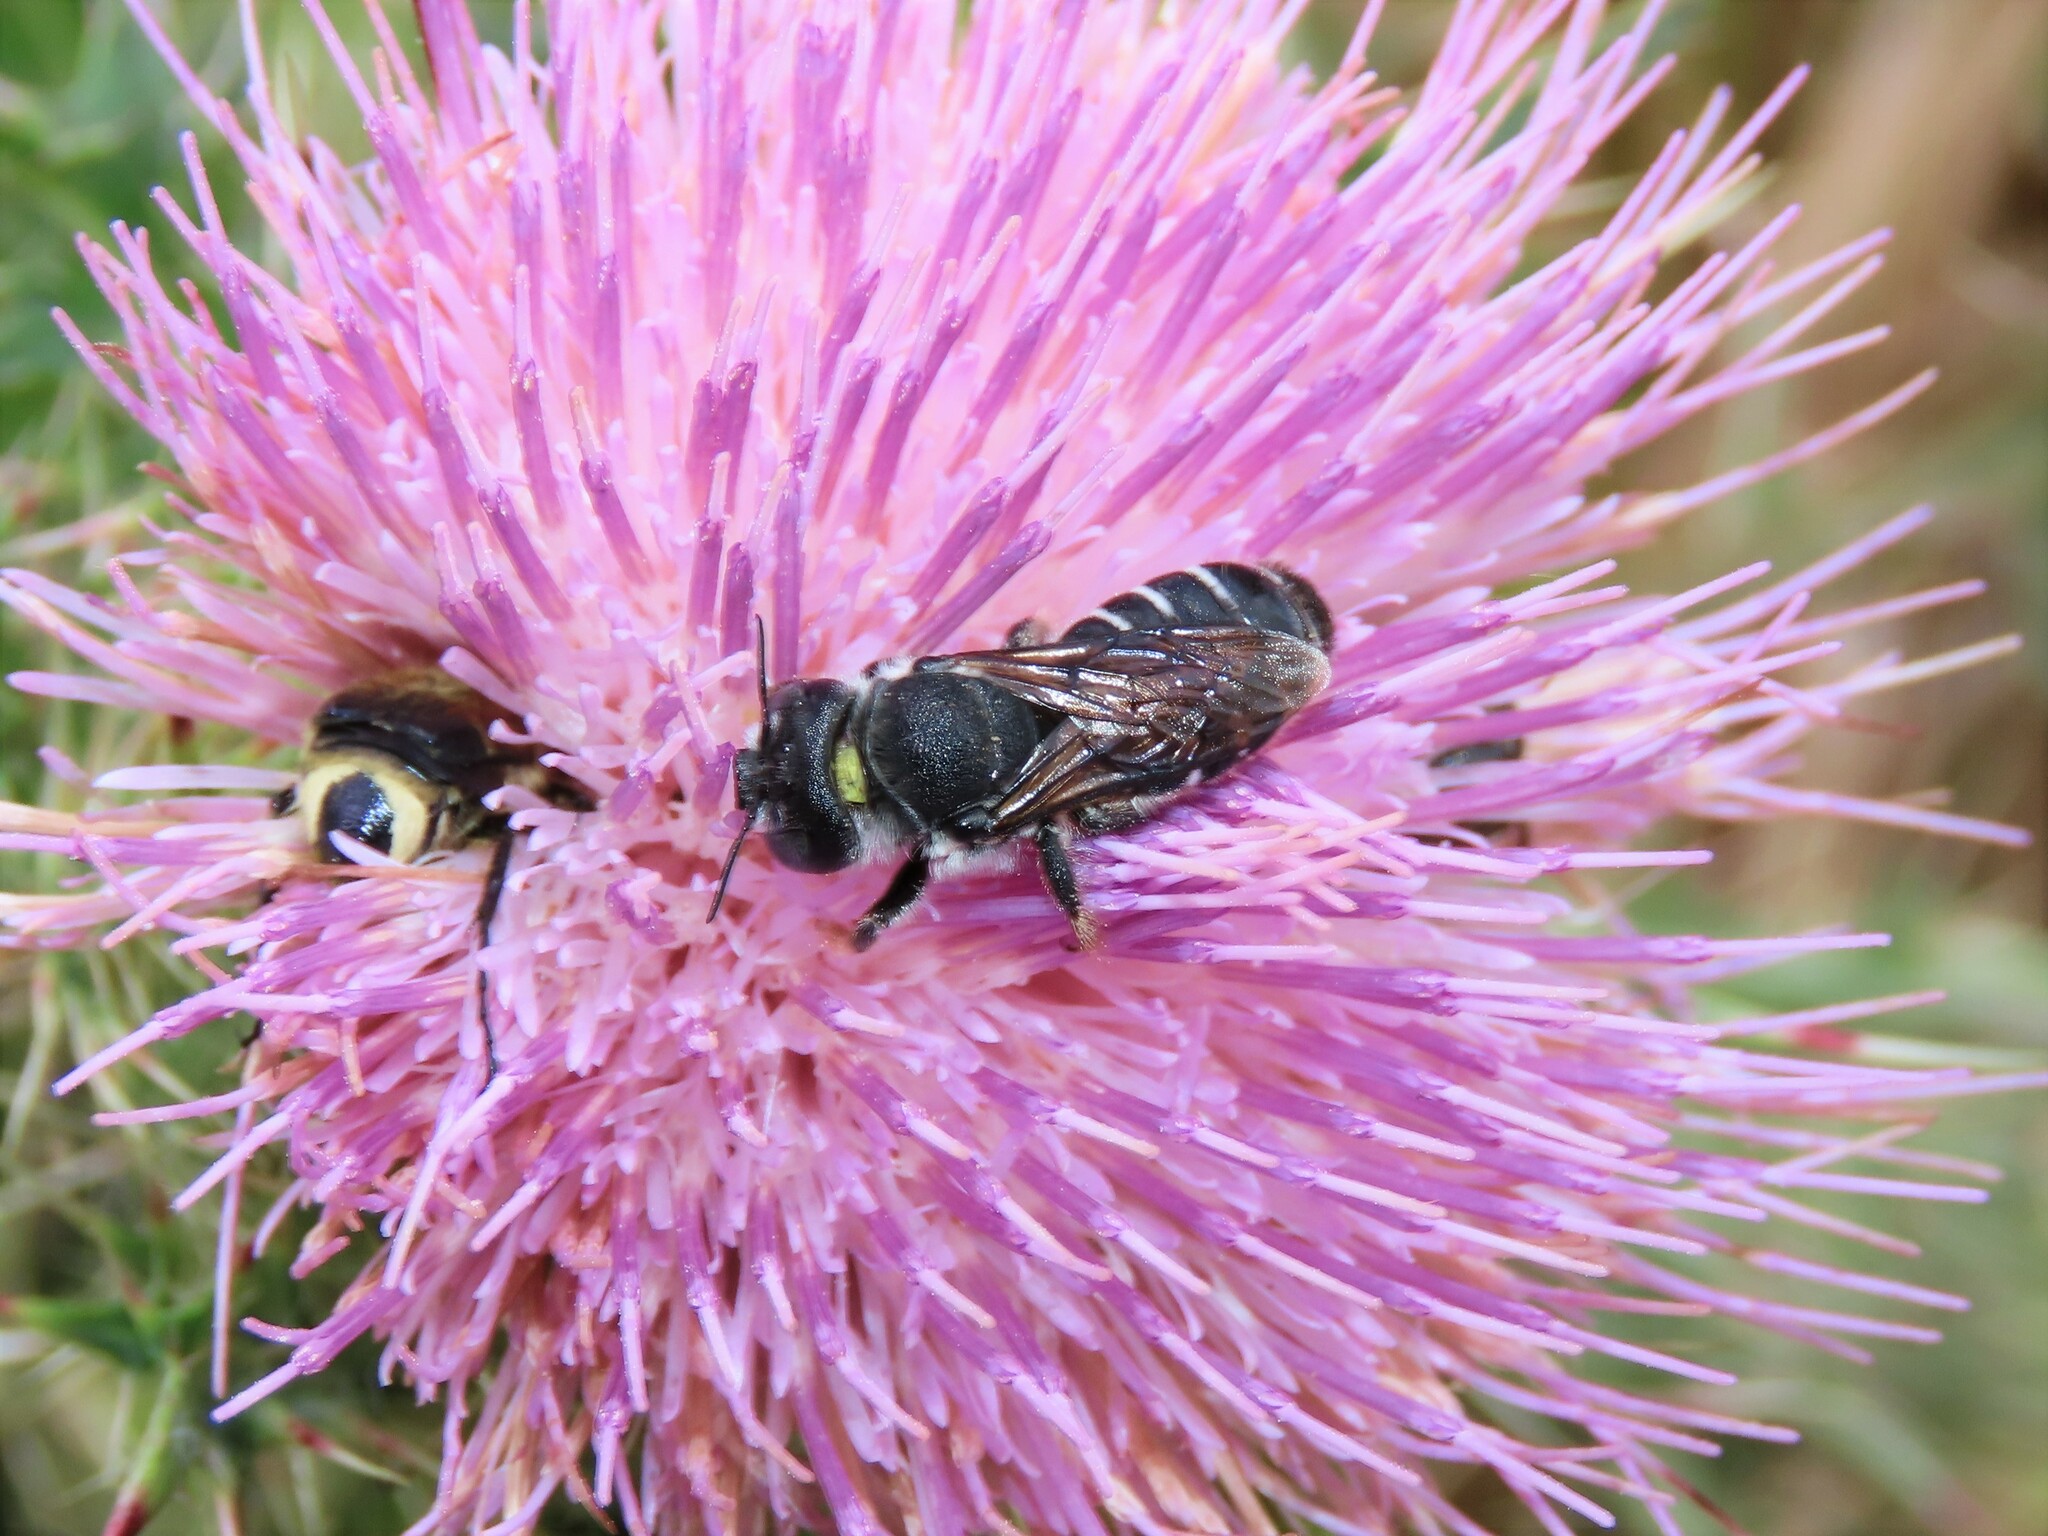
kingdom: Animalia
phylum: Arthropoda
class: Insecta
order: Hymenoptera
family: Megachilidae
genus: Lithurgopsis
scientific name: Lithurgopsis gibbosa
